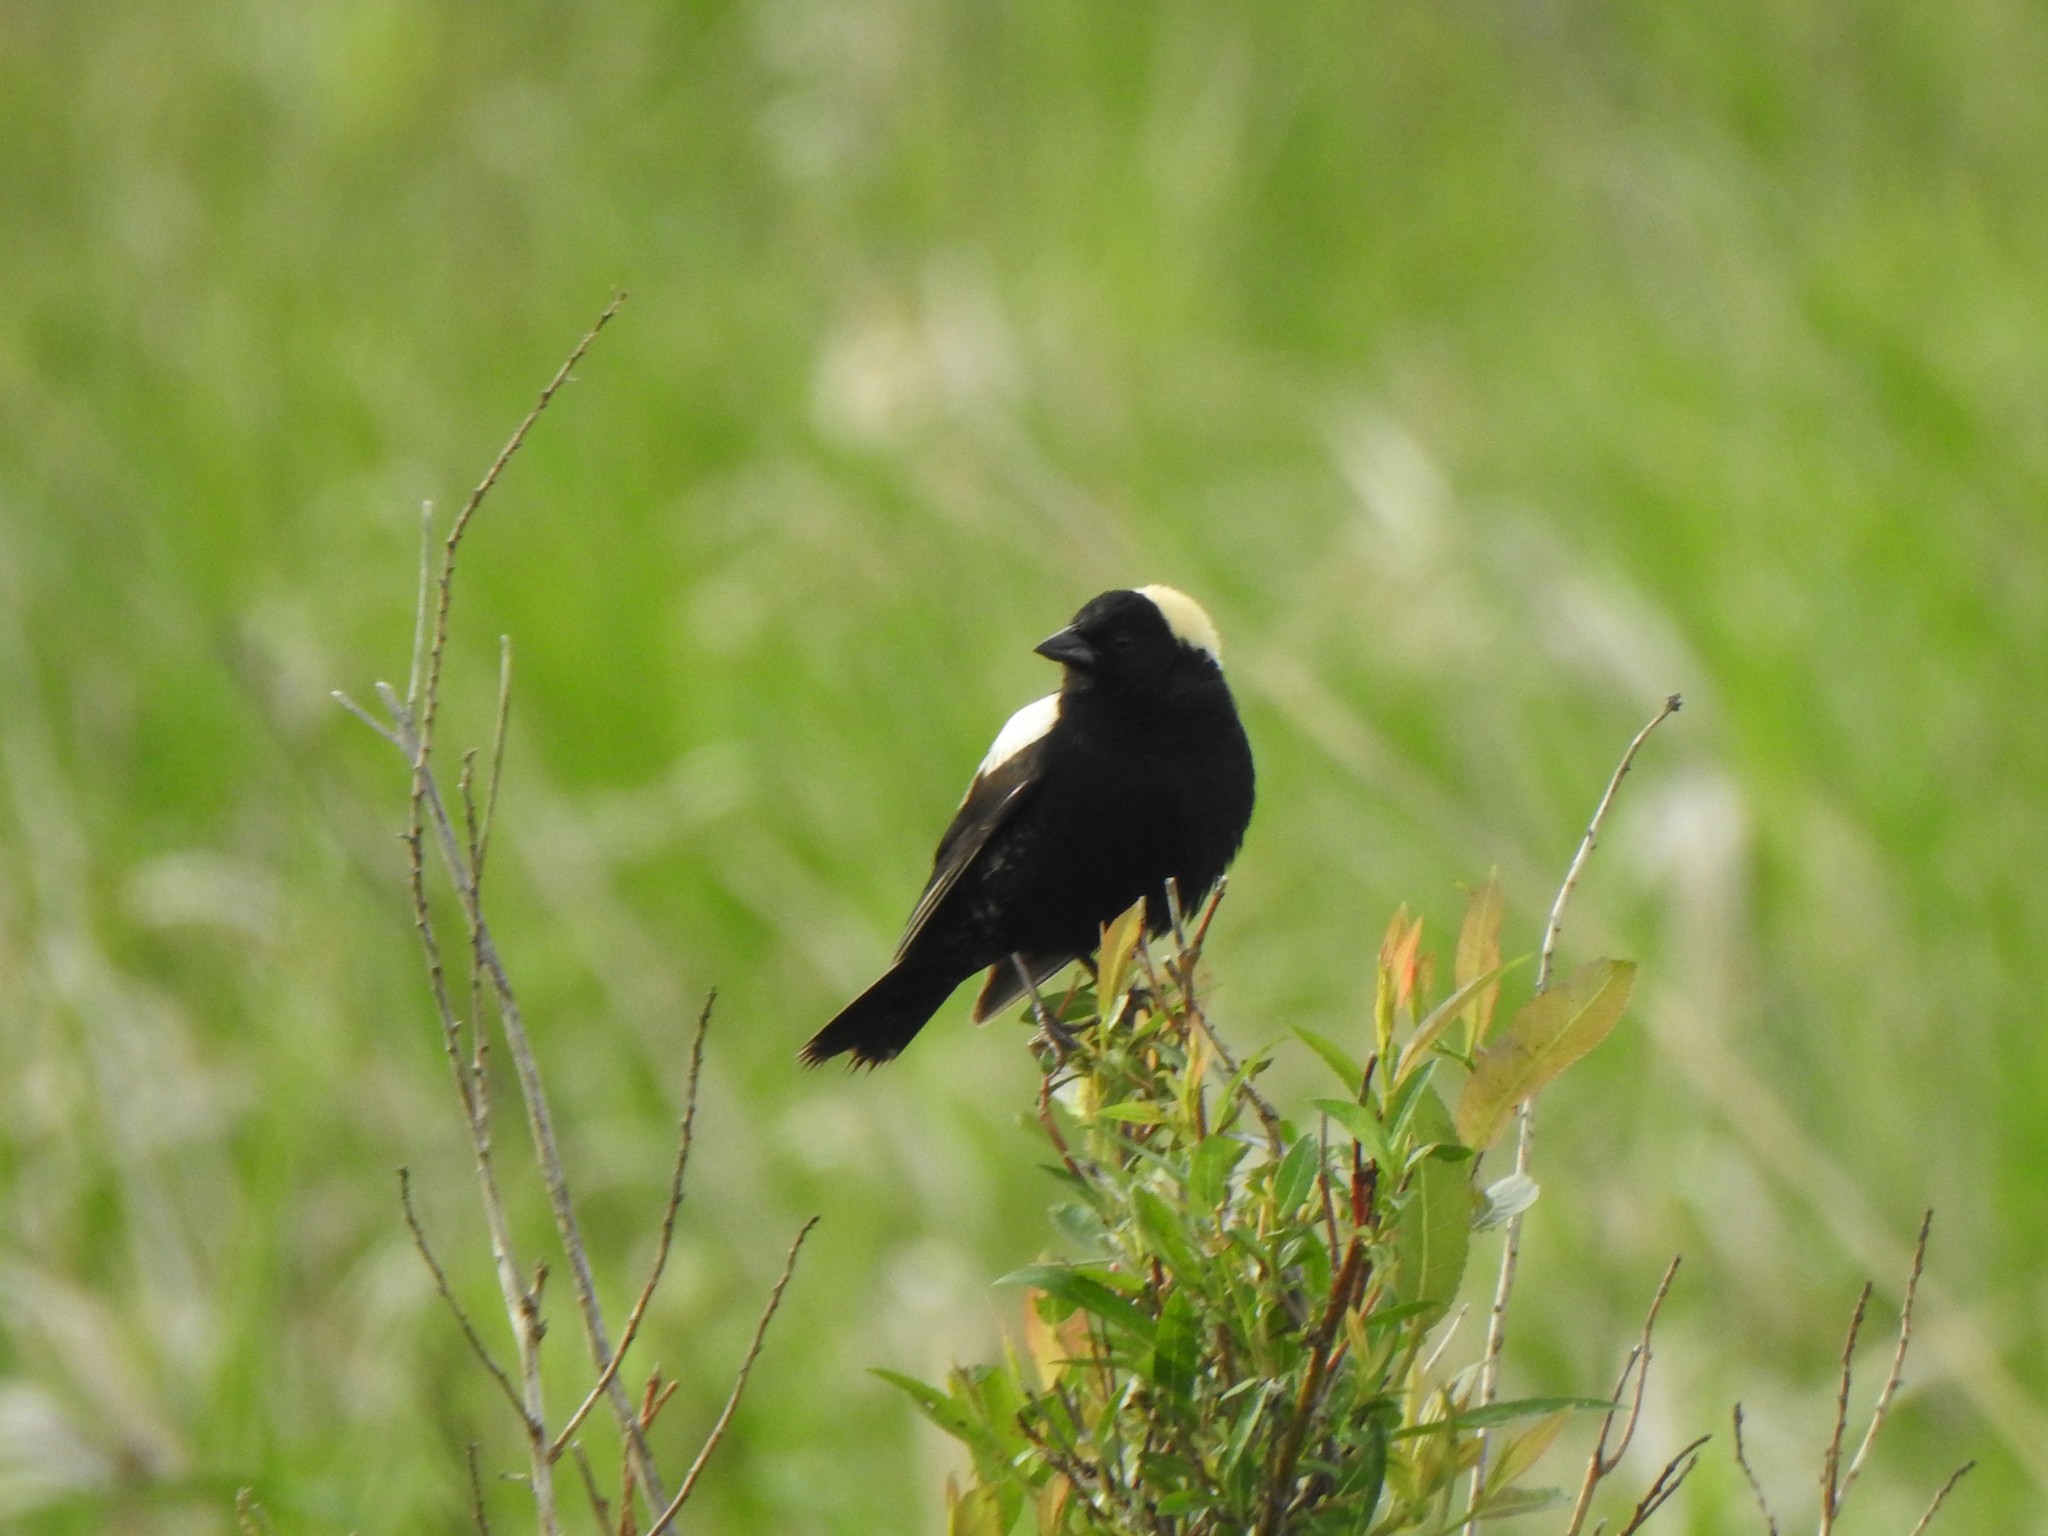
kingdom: Animalia
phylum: Chordata
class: Aves
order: Passeriformes
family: Icteridae
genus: Dolichonyx
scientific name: Dolichonyx oryzivorus
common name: Bobolink
